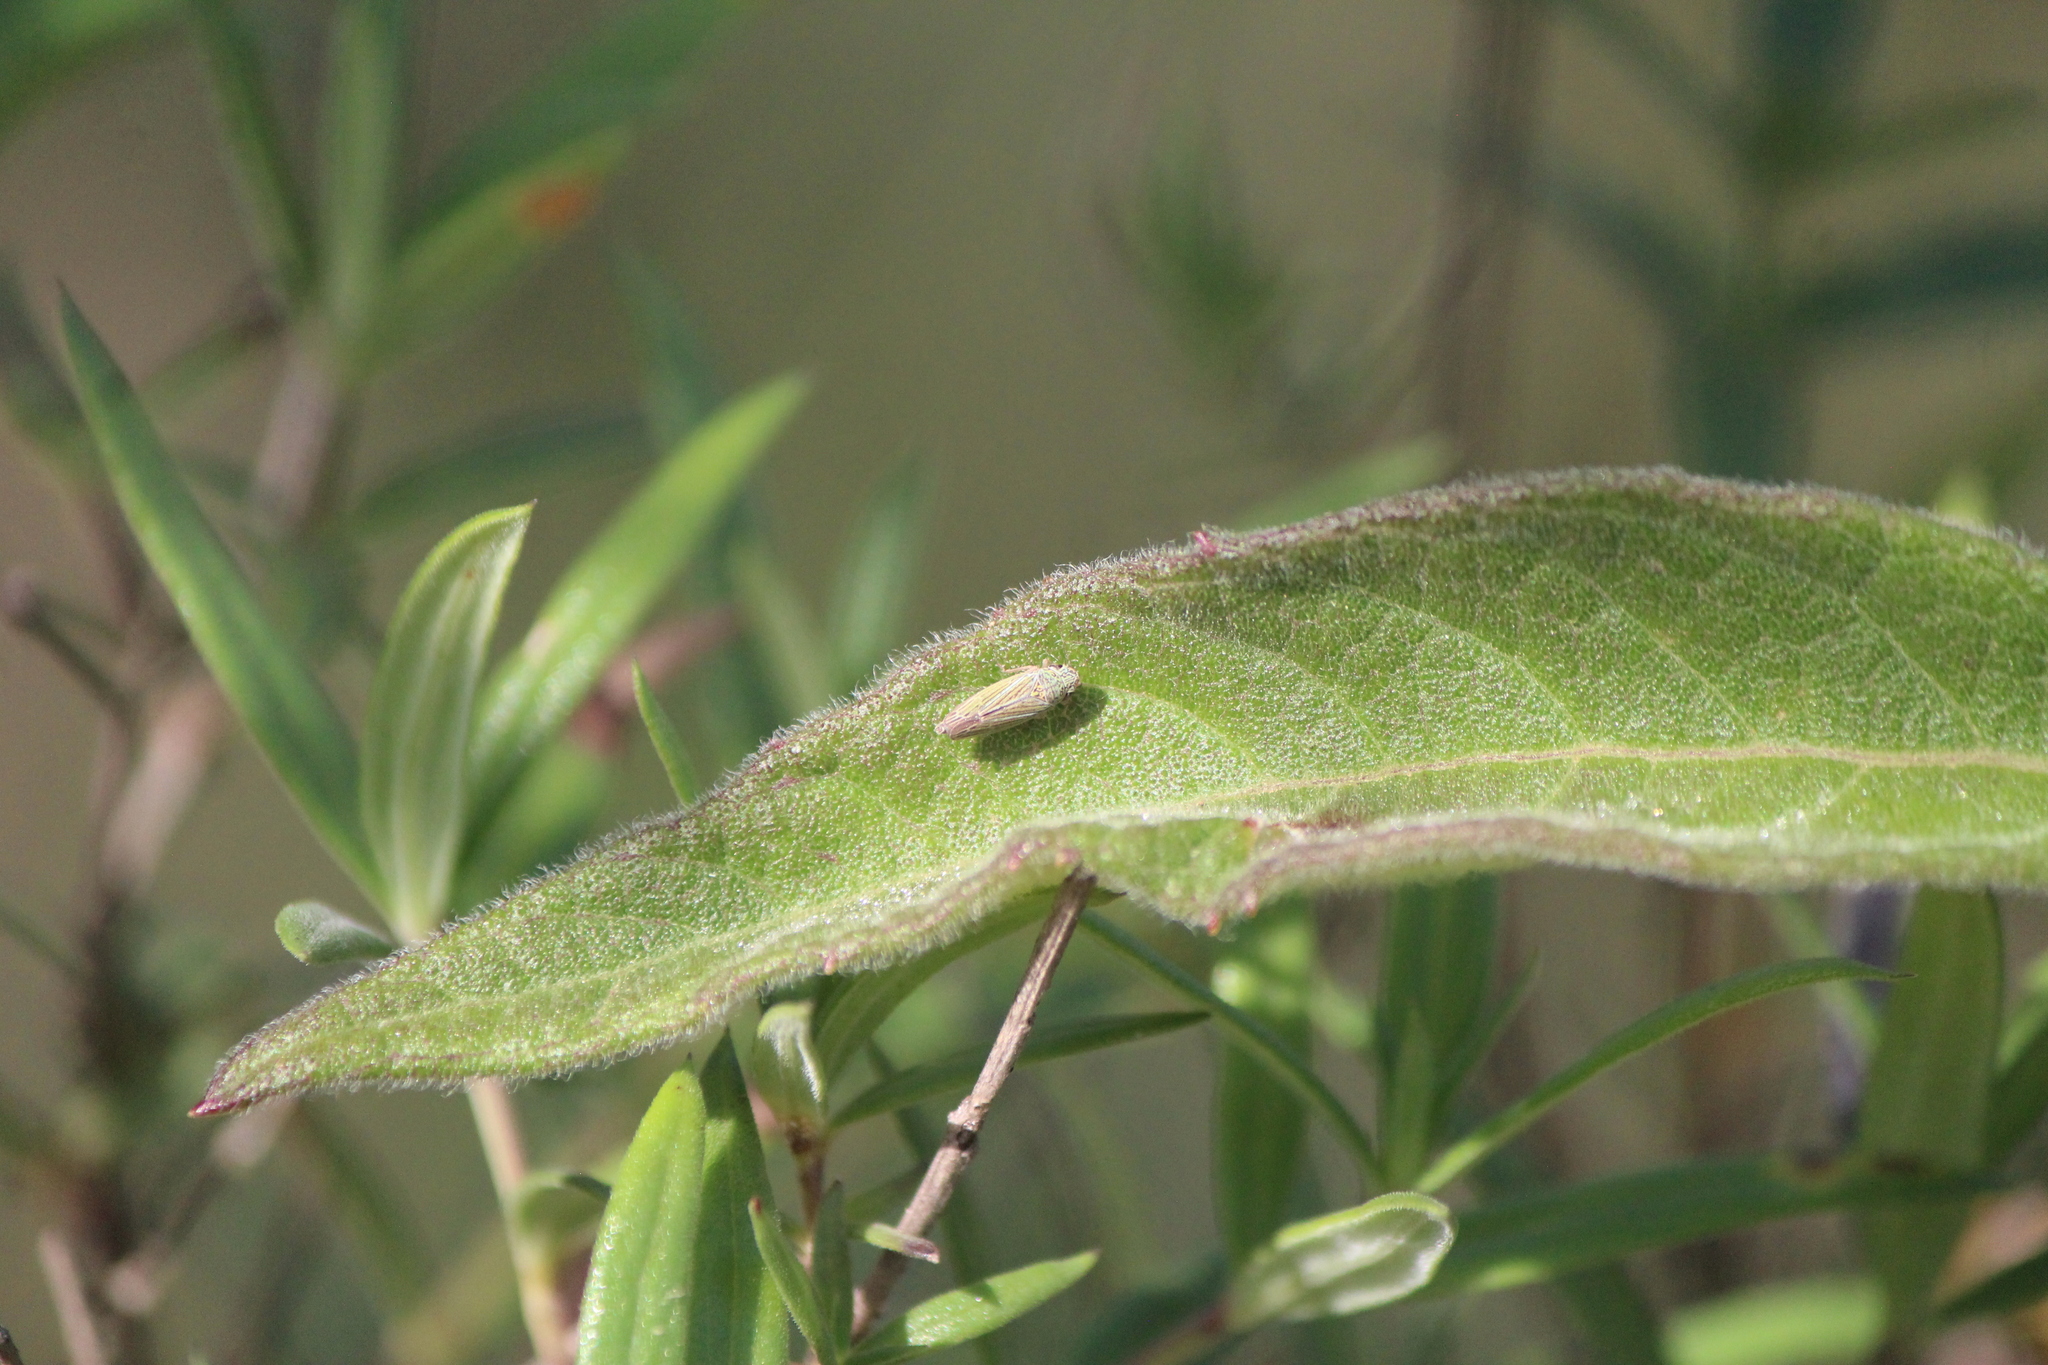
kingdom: Animalia
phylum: Arthropoda
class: Insecta
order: Hemiptera
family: Cicadellidae
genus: Neokolla
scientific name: Neokolla aridella
